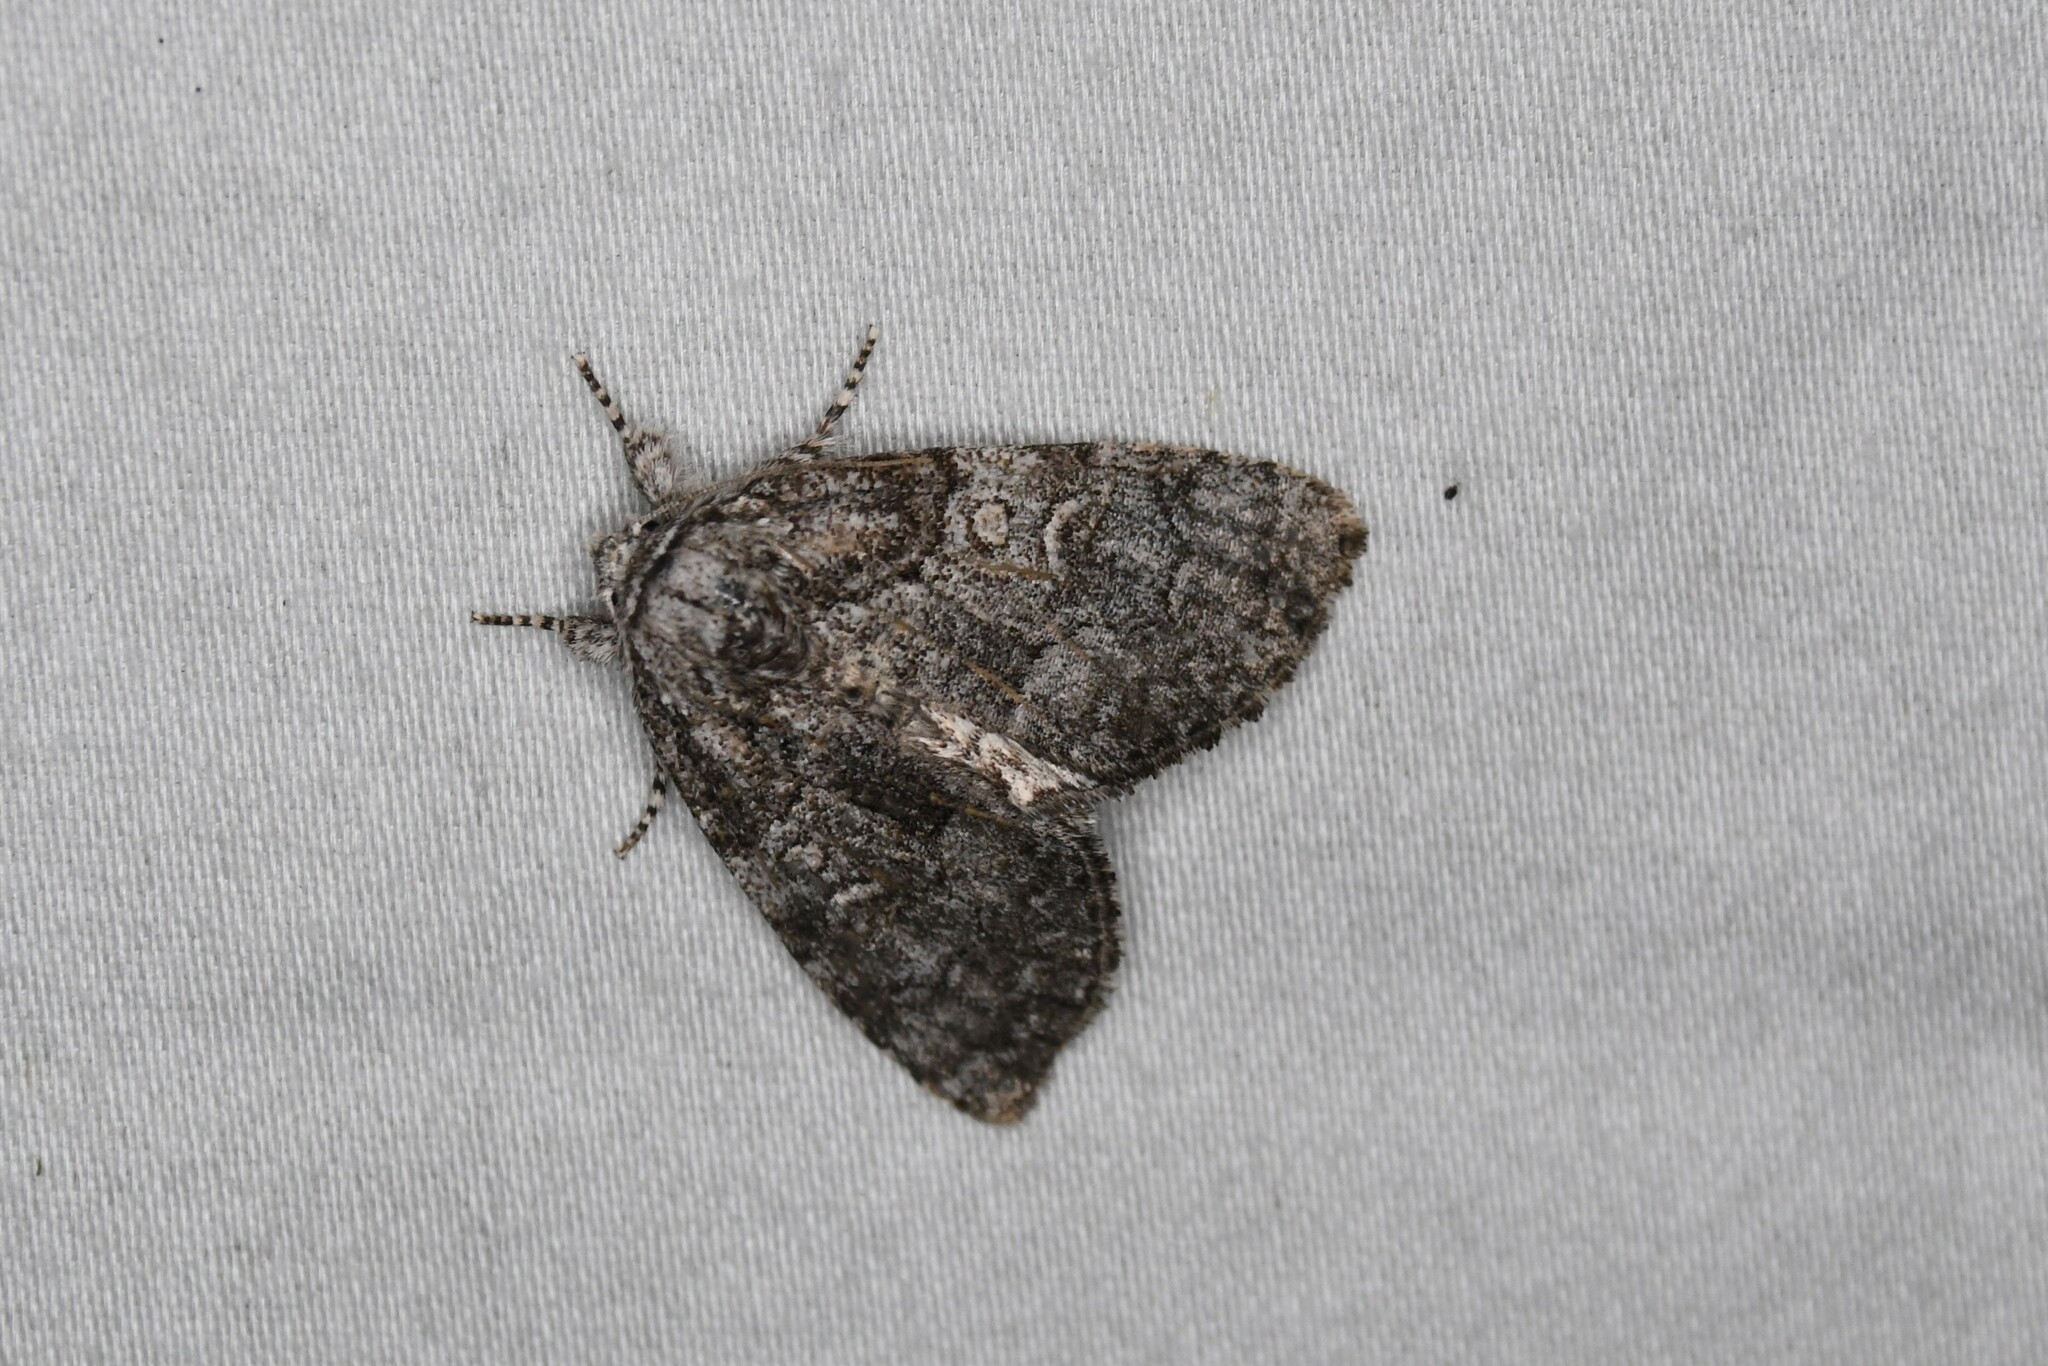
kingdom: Animalia
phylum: Arthropoda
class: Insecta
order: Lepidoptera
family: Noctuidae
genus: Raphia
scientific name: Raphia frater
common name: Brother
